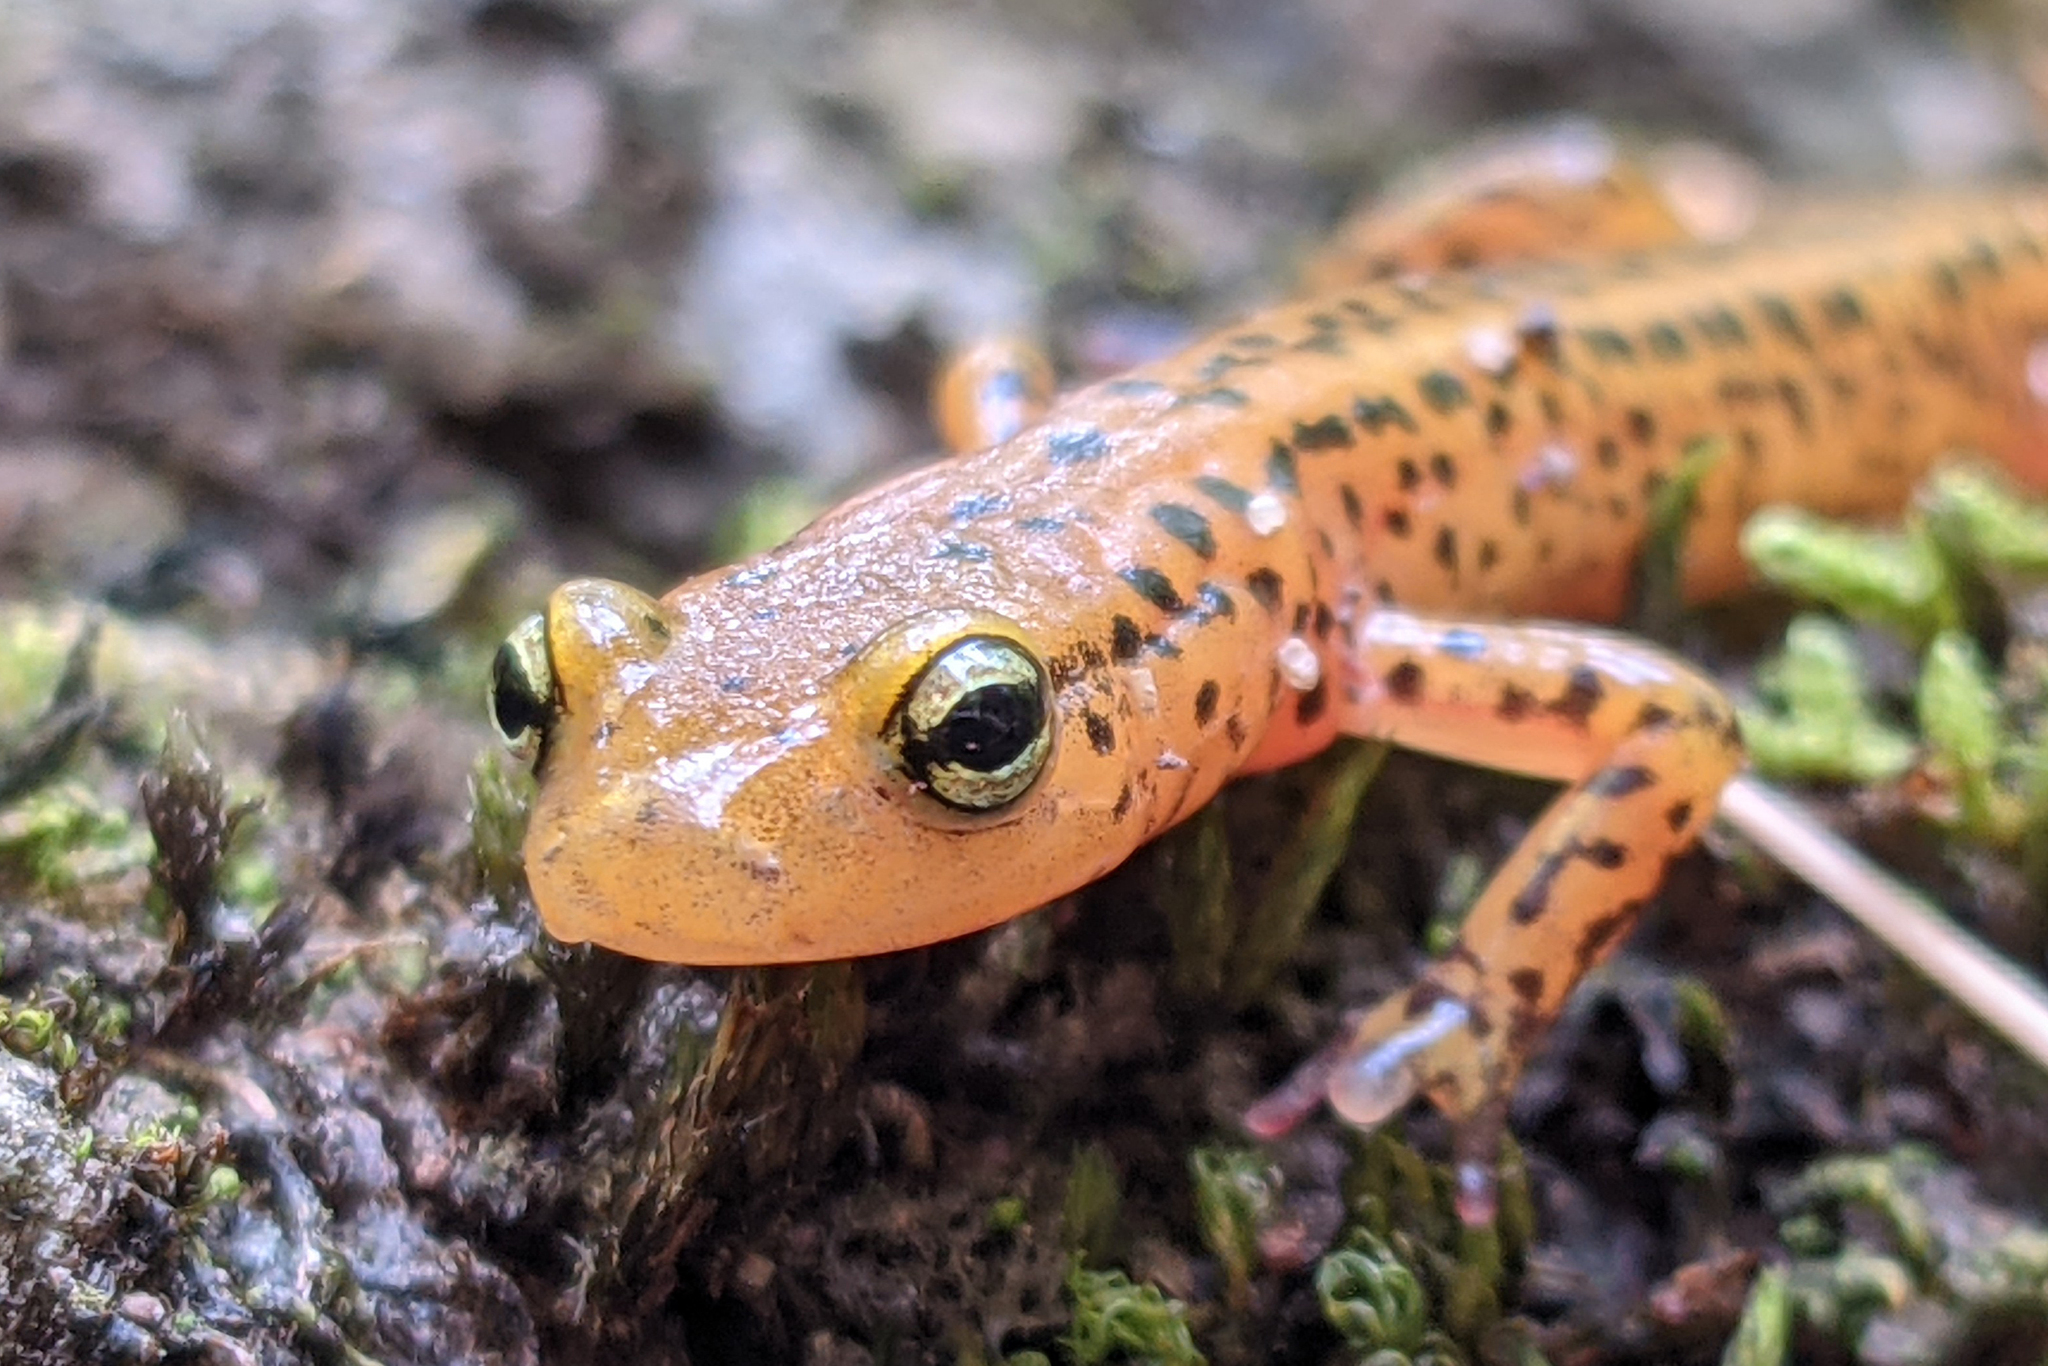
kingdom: Animalia
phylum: Chordata
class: Amphibia
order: Caudata
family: Plethodontidae
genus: Eurycea
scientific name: Eurycea longicauda
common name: Long-tailed salamander
